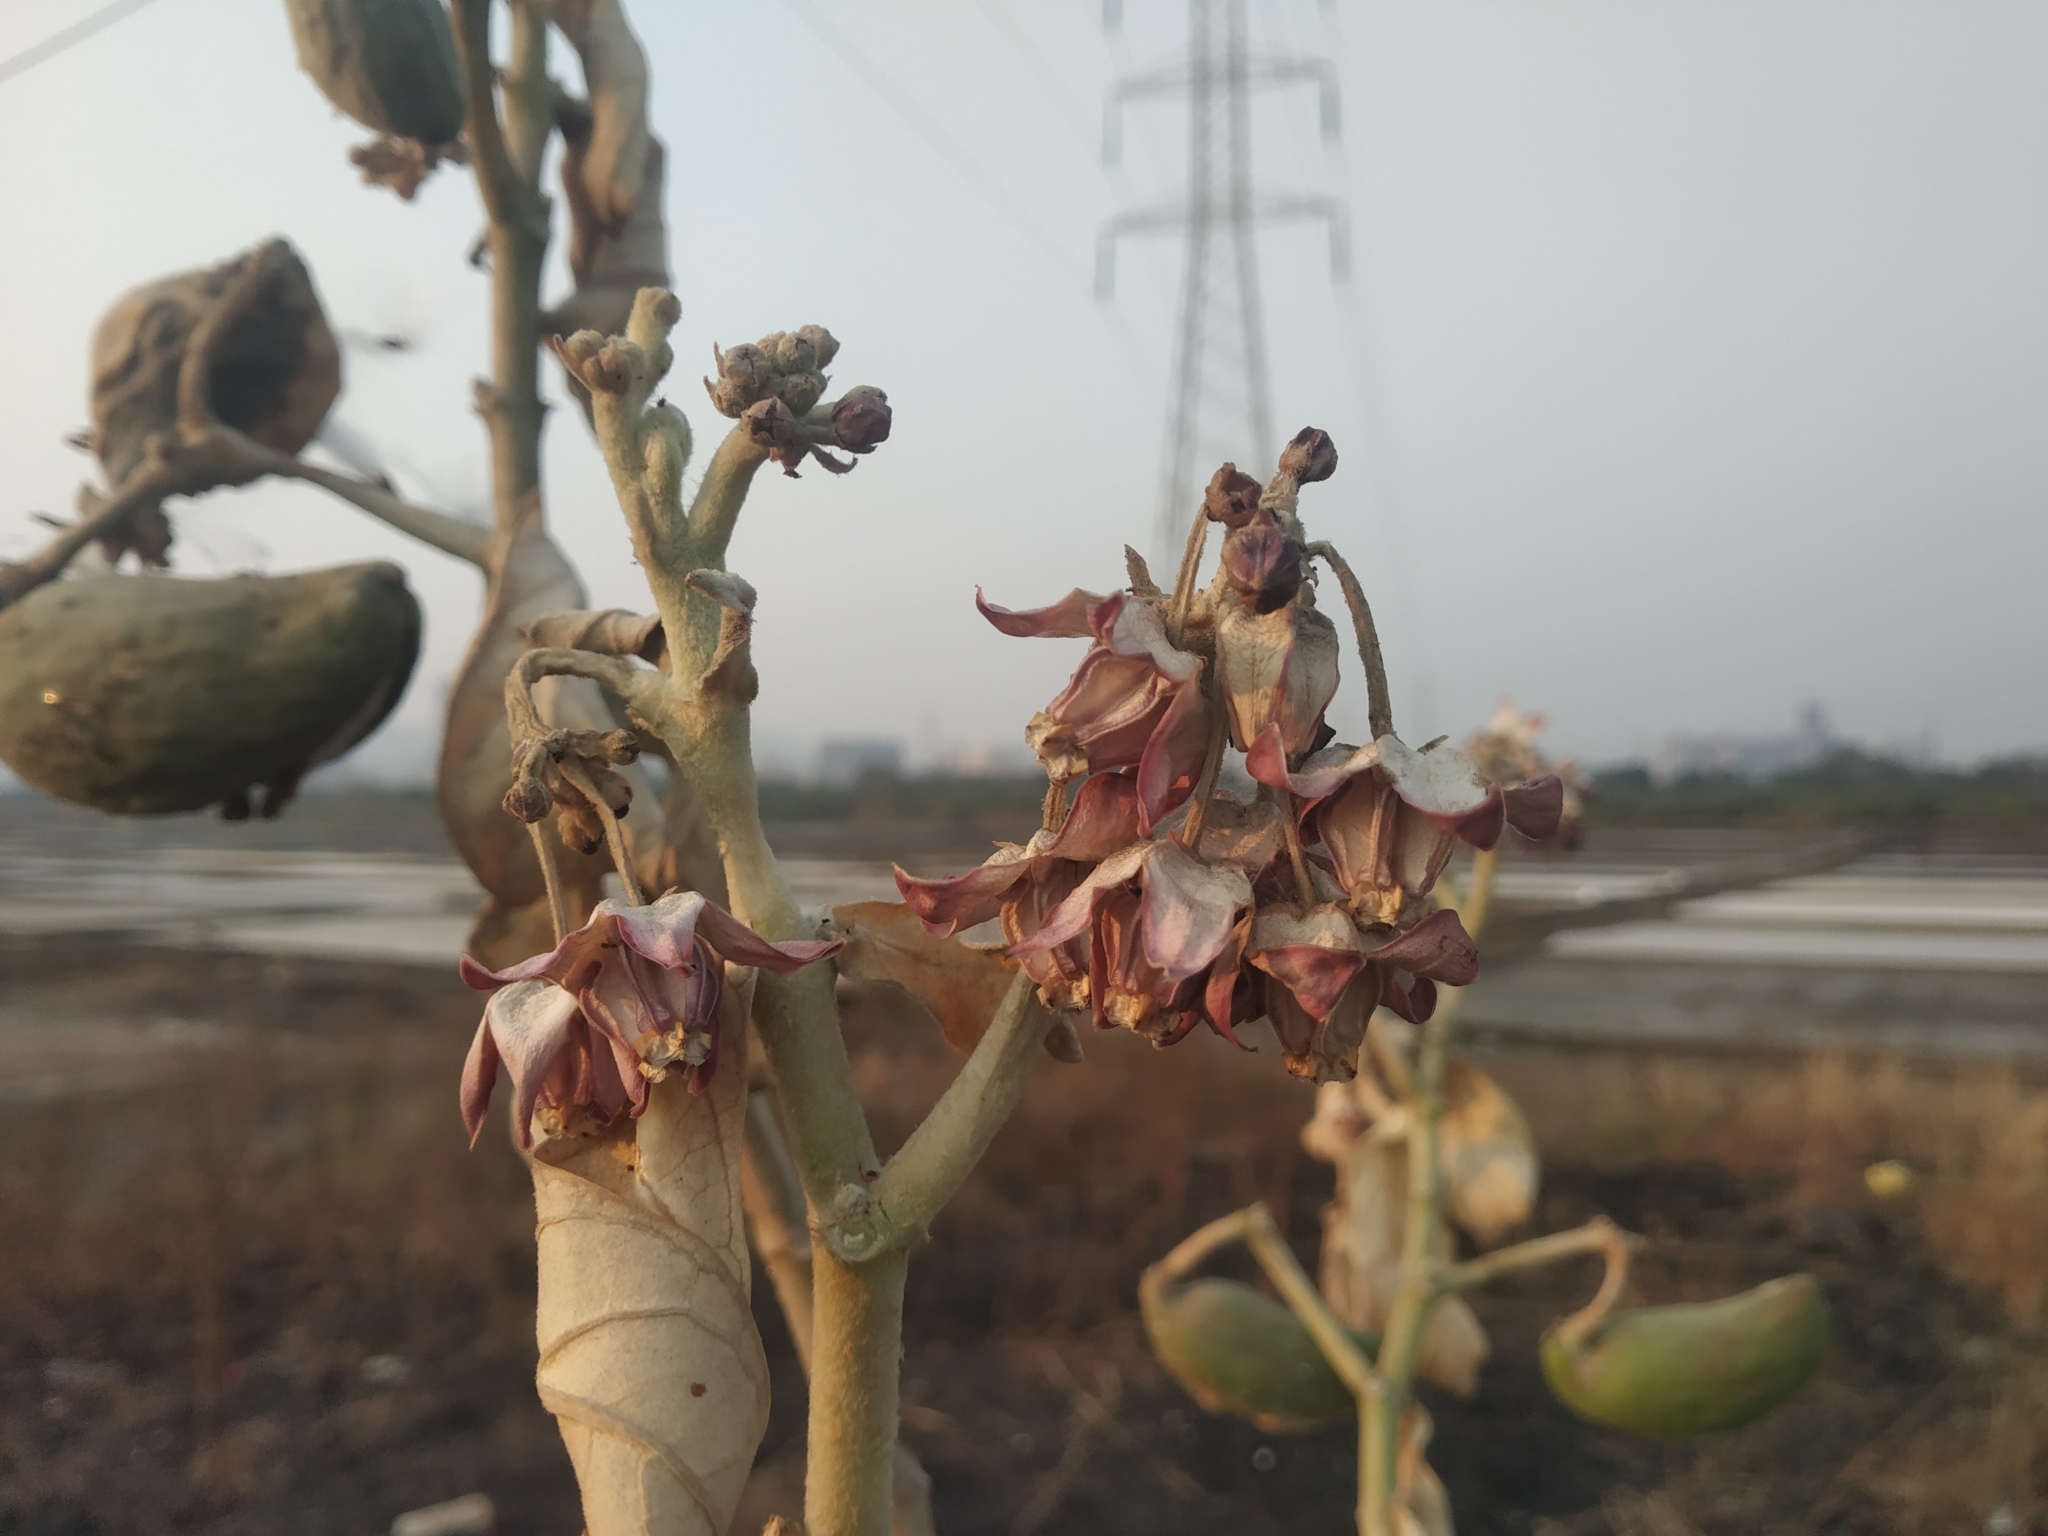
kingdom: Plantae
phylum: Tracheophyta
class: Magnoliopsida
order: Gentianales
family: Apocynaceae
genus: Calotropis
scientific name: Calotropis gigantea
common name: Crown flower
